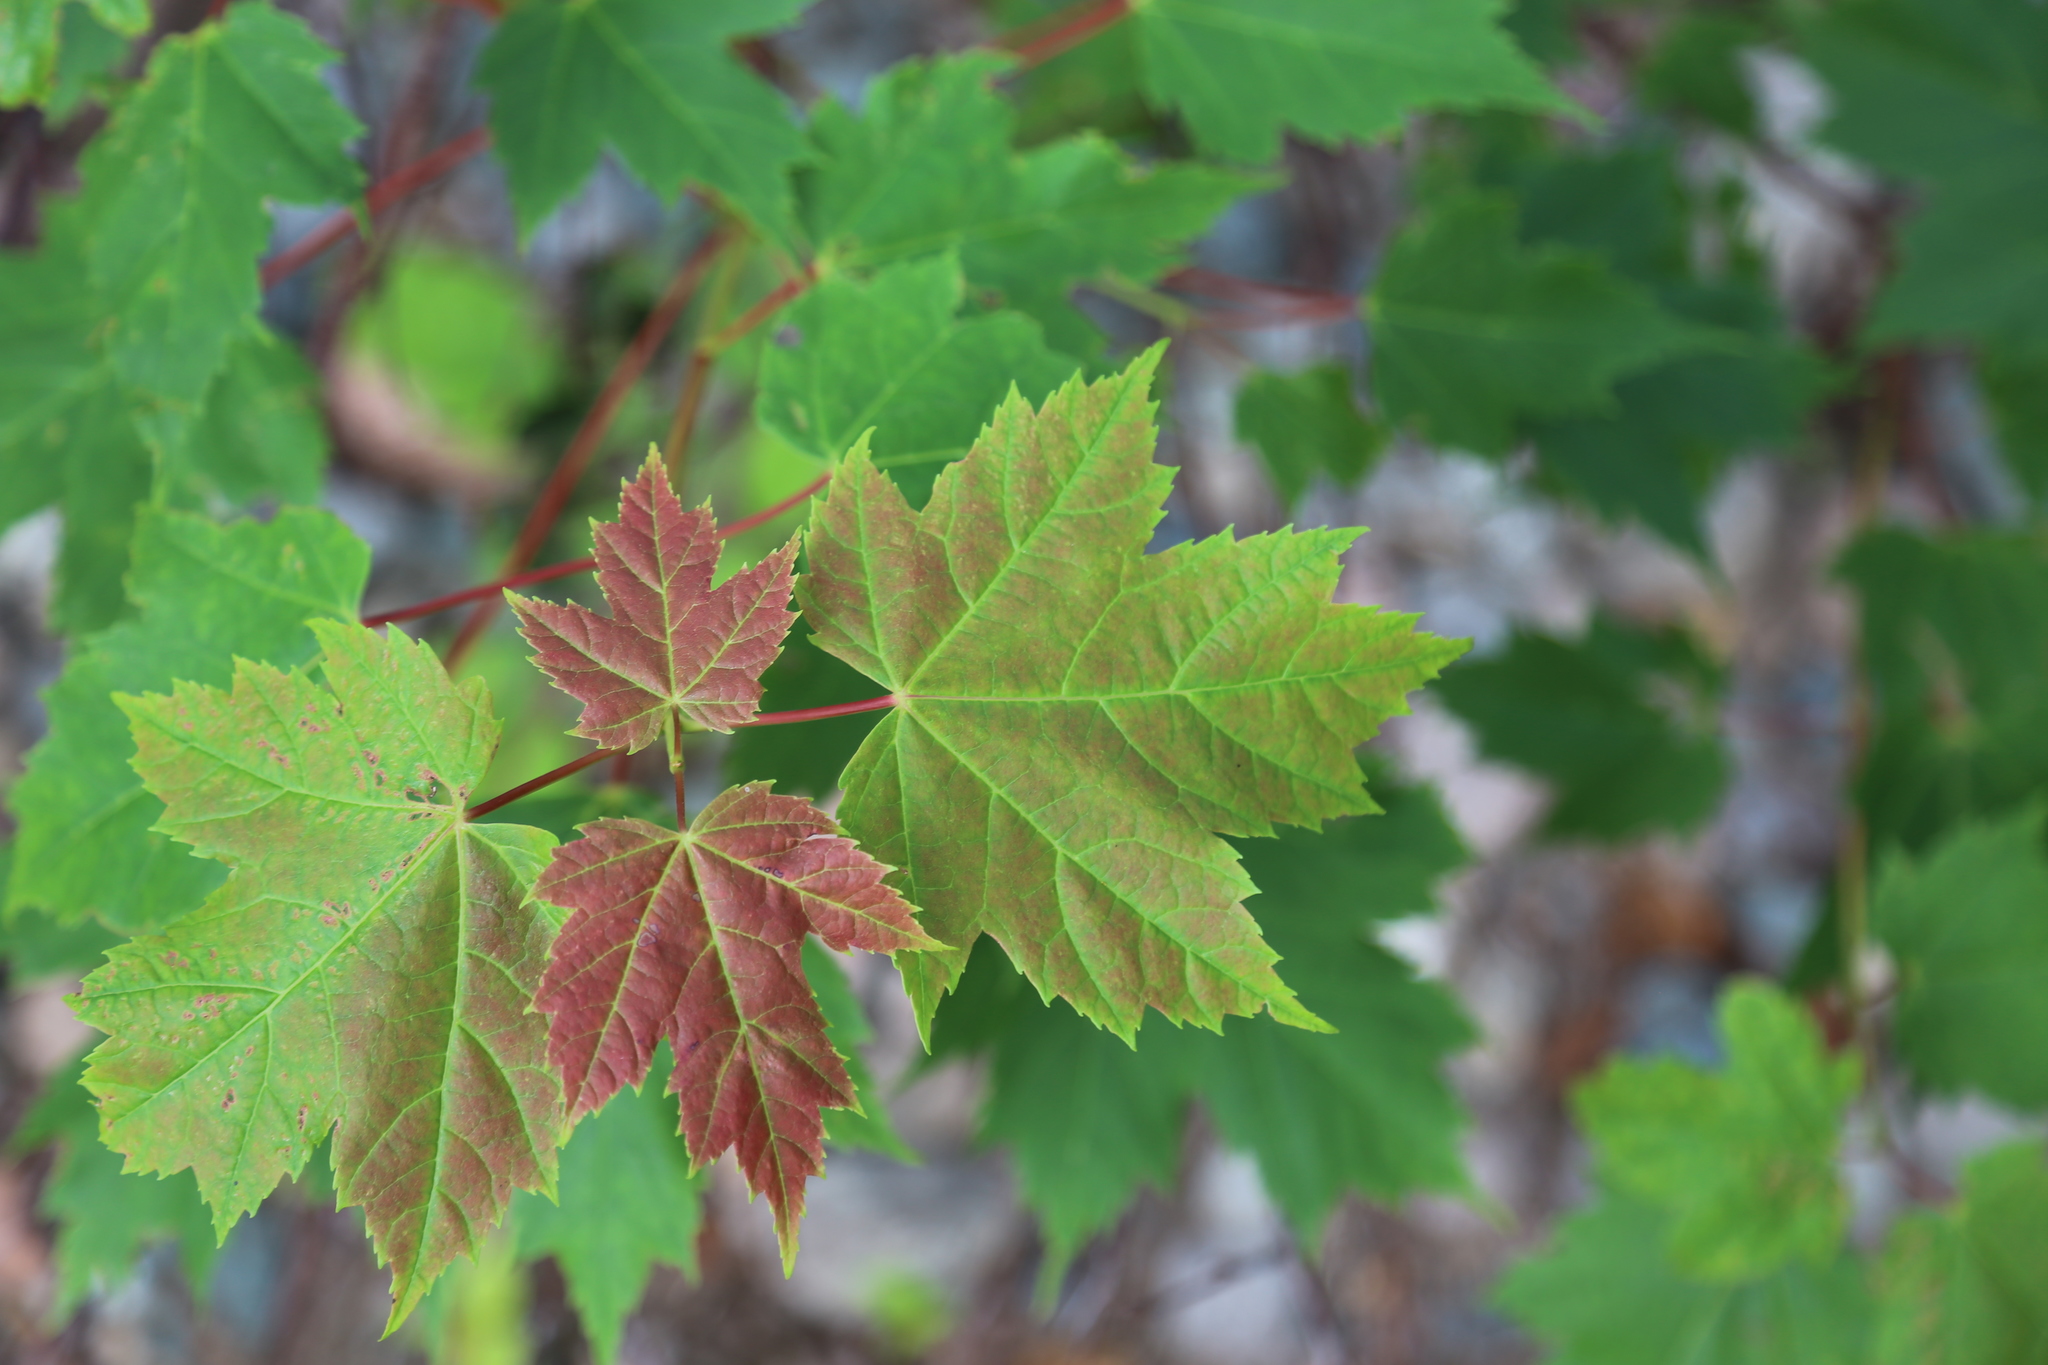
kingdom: Plantae
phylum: Tracheophyta
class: Magnoliopsida
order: Sapindales
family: Sapindaceae
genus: Acer
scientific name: Acer rubrum
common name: Red maple
